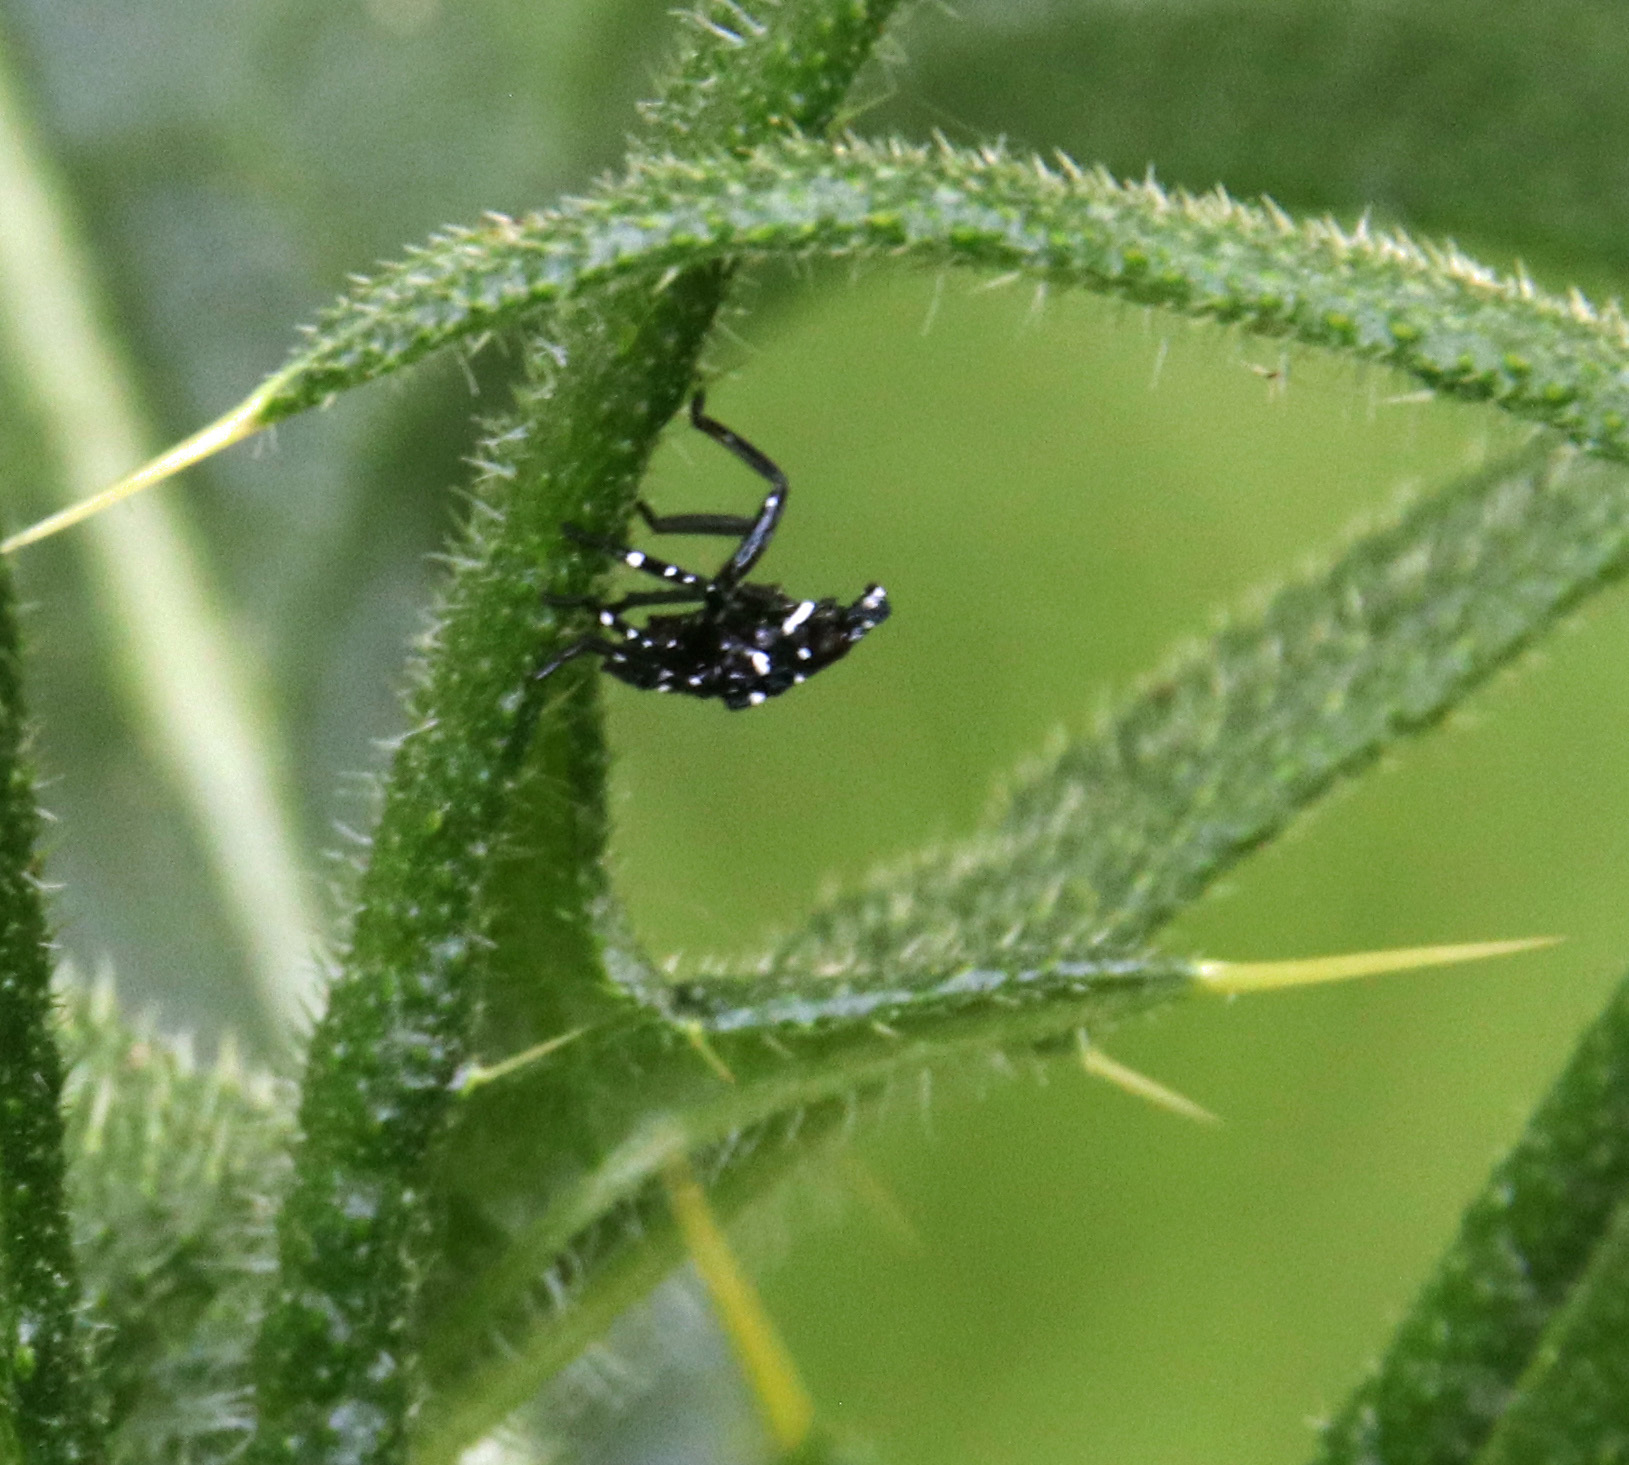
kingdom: Animalia
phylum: Arthropoda
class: Insecta
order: Hemiptera
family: Fulgoridae
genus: Lycorma
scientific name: Lycorma delicatula
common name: Spotted lanternfly
